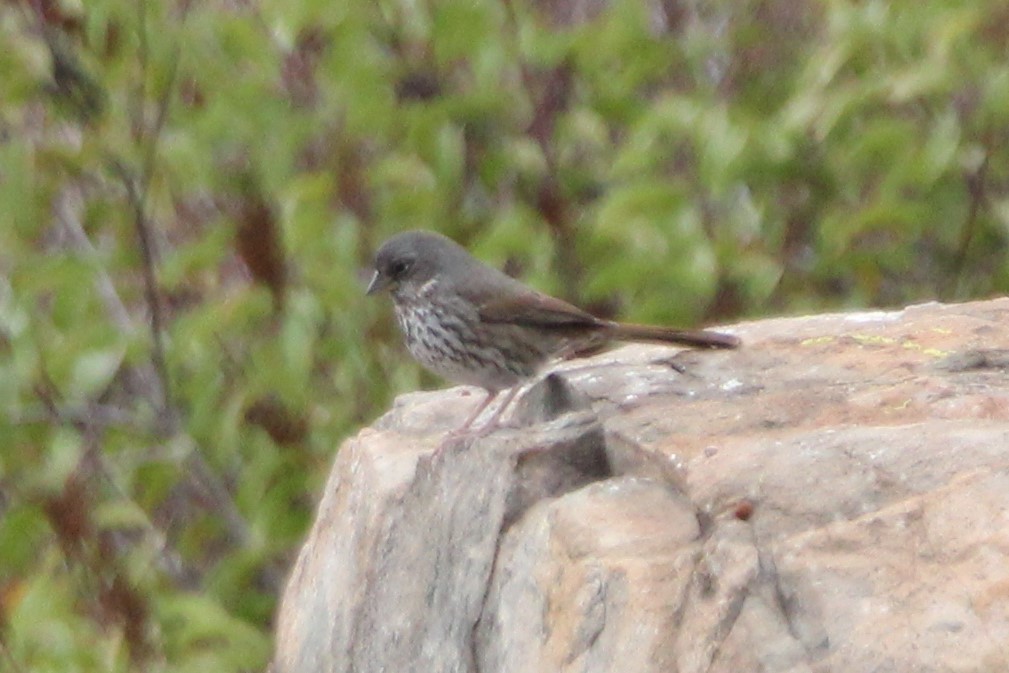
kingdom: Animalia
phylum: Chordata
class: Aves
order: Passeriformes
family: Passerellidae
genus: Passerella
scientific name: Passerella iliaca
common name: Fox sparrow
